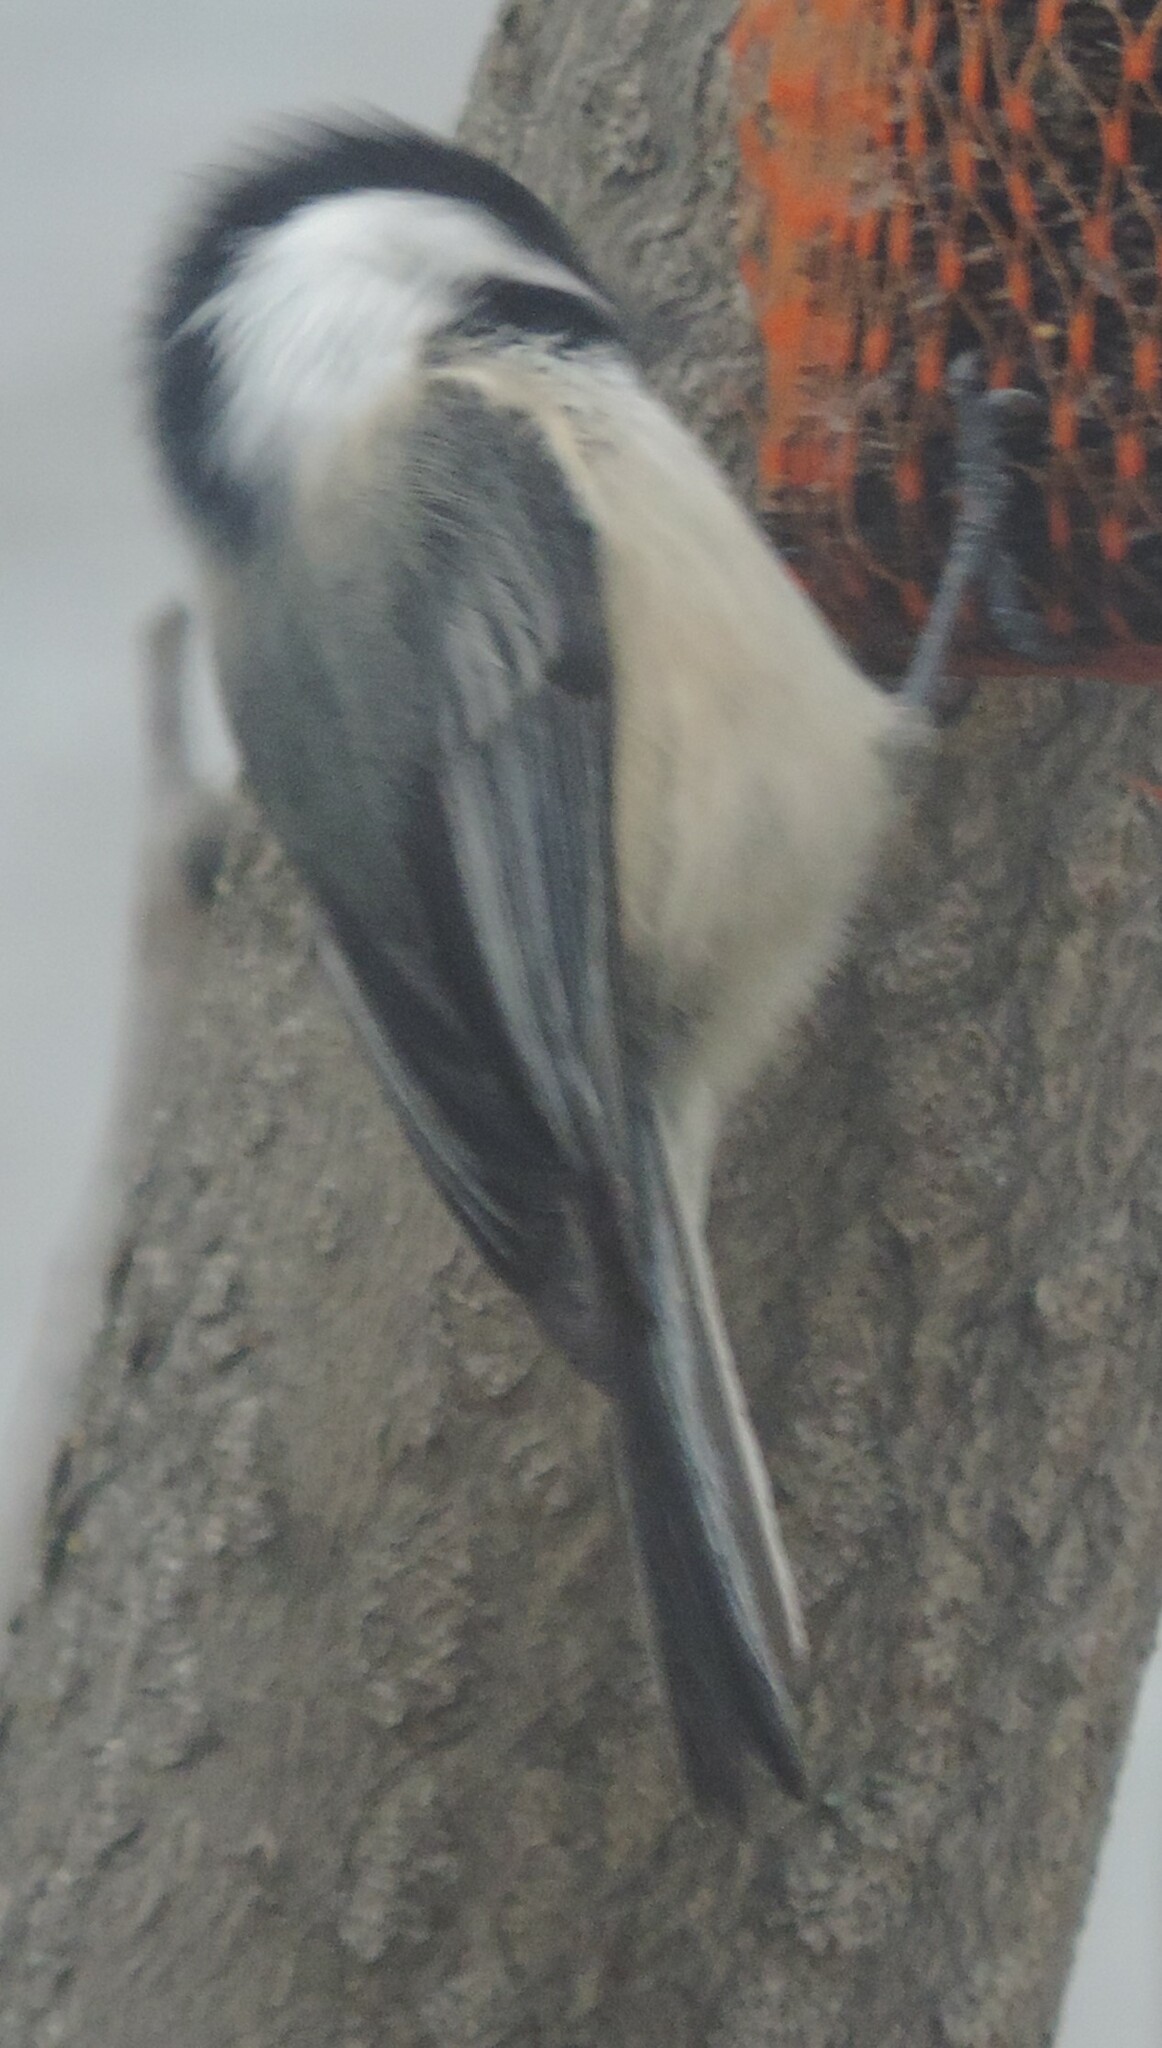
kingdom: Animalia
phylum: Chordata
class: Aves
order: Passeriformes
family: Paridae
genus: Poecile
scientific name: Poecile atricapillus
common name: Black-capped chickadee
